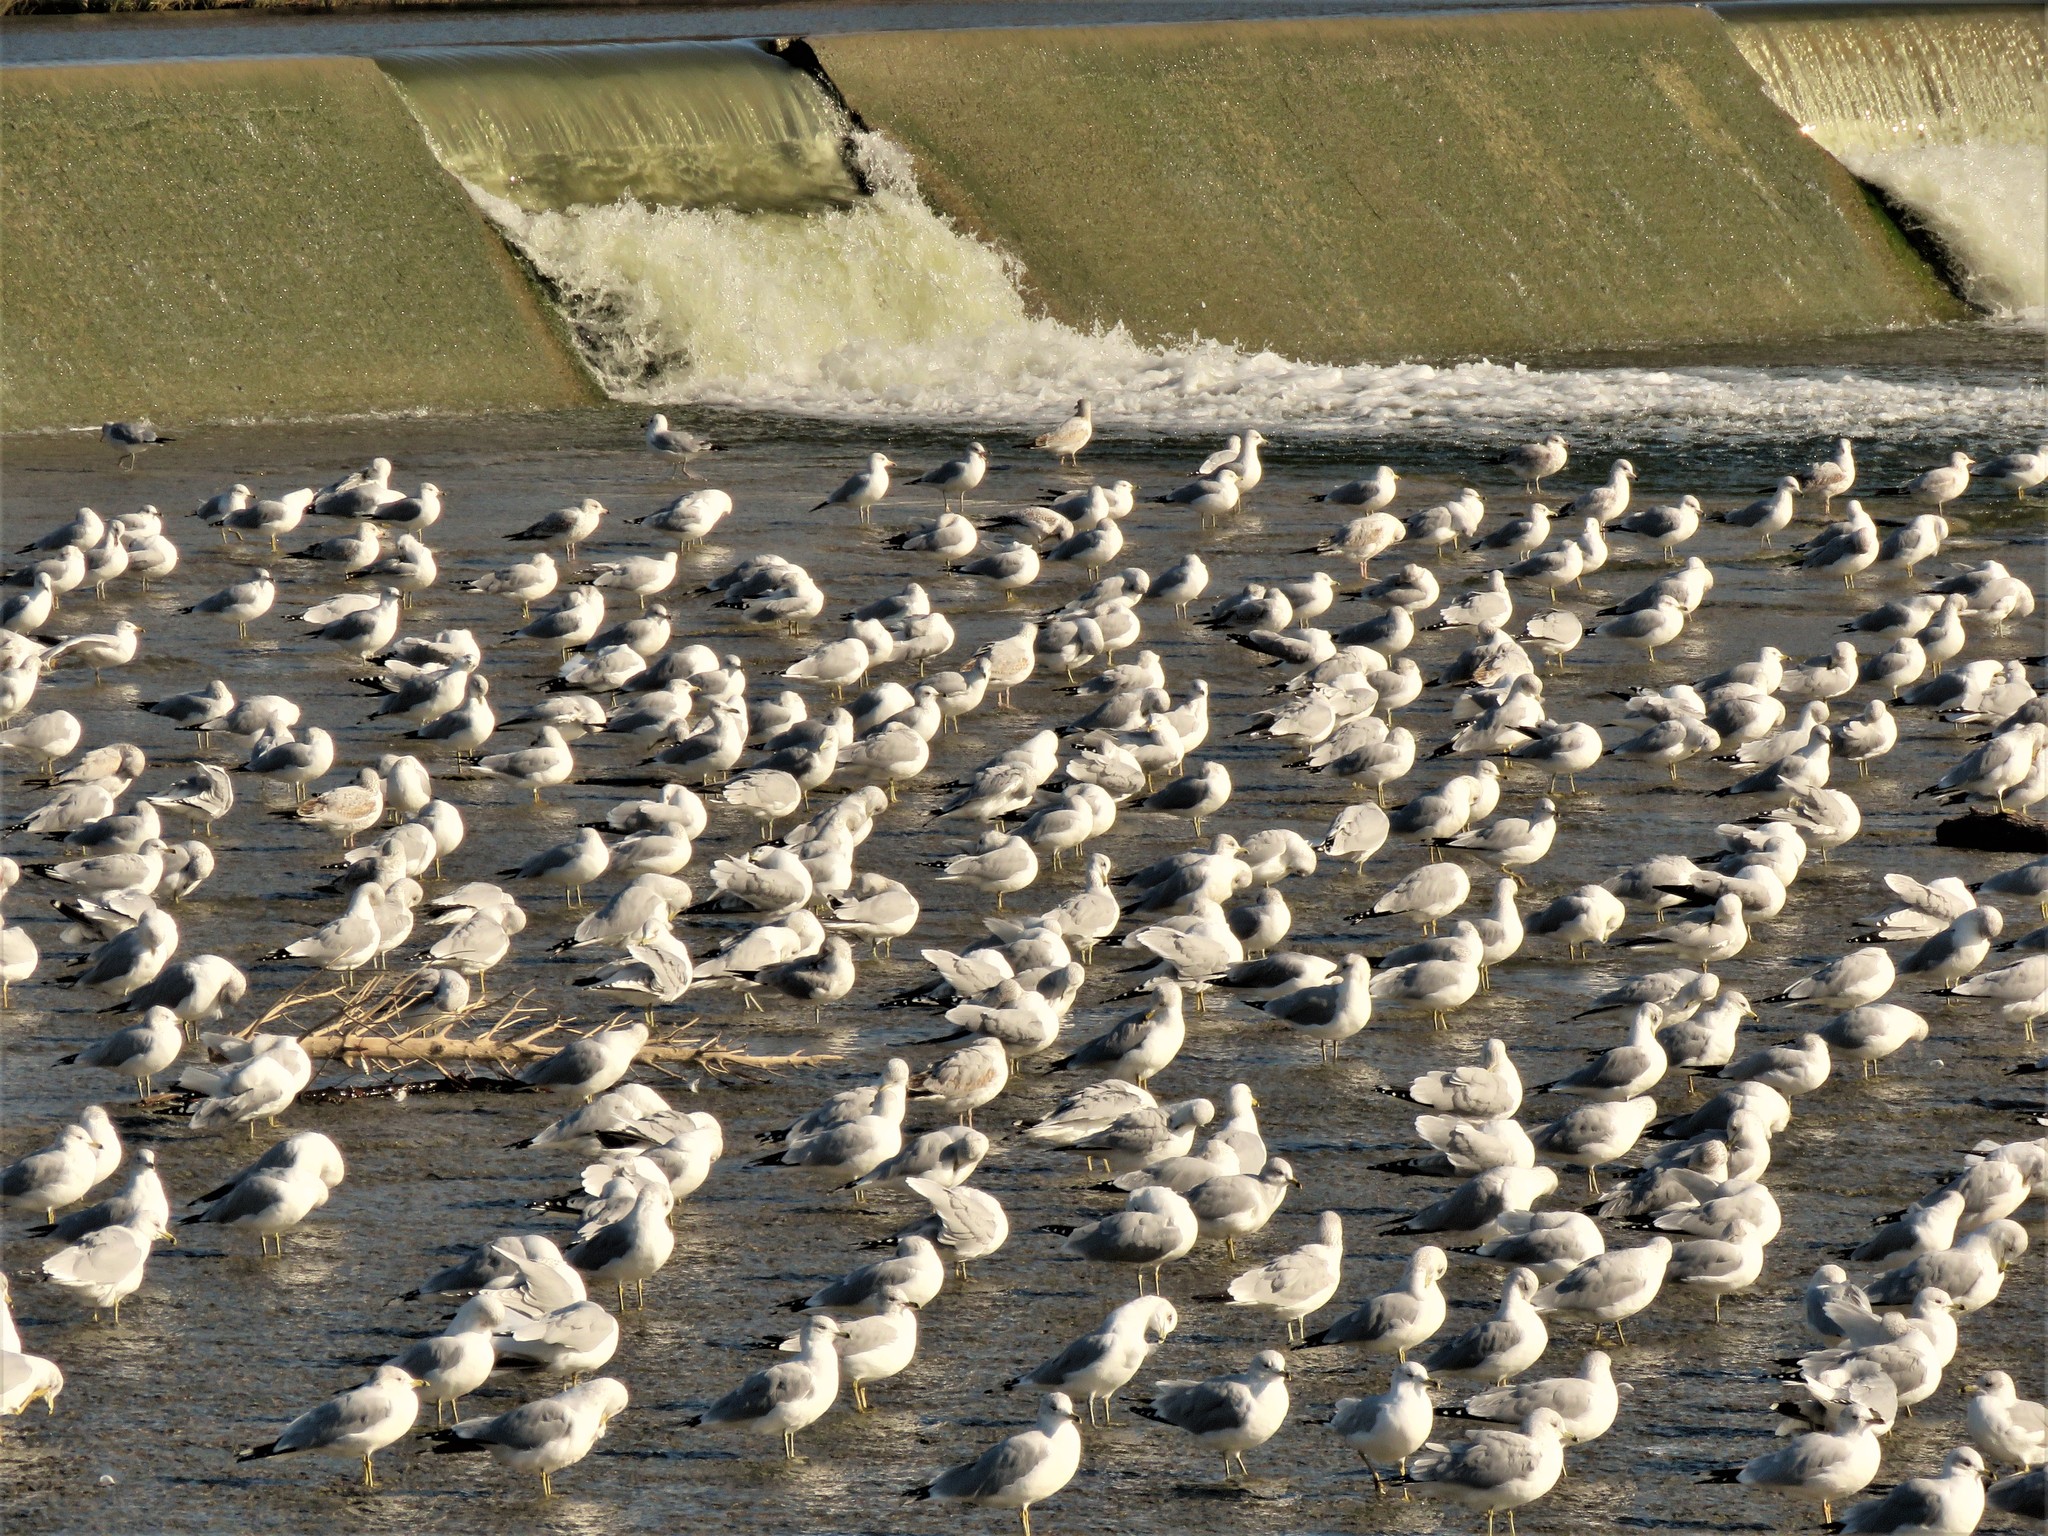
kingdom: Animalia
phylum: Chordata
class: Aves
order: Charadriiformes
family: Laridae
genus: Larus
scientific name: Larus delawarensis
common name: Ring-billed gull
